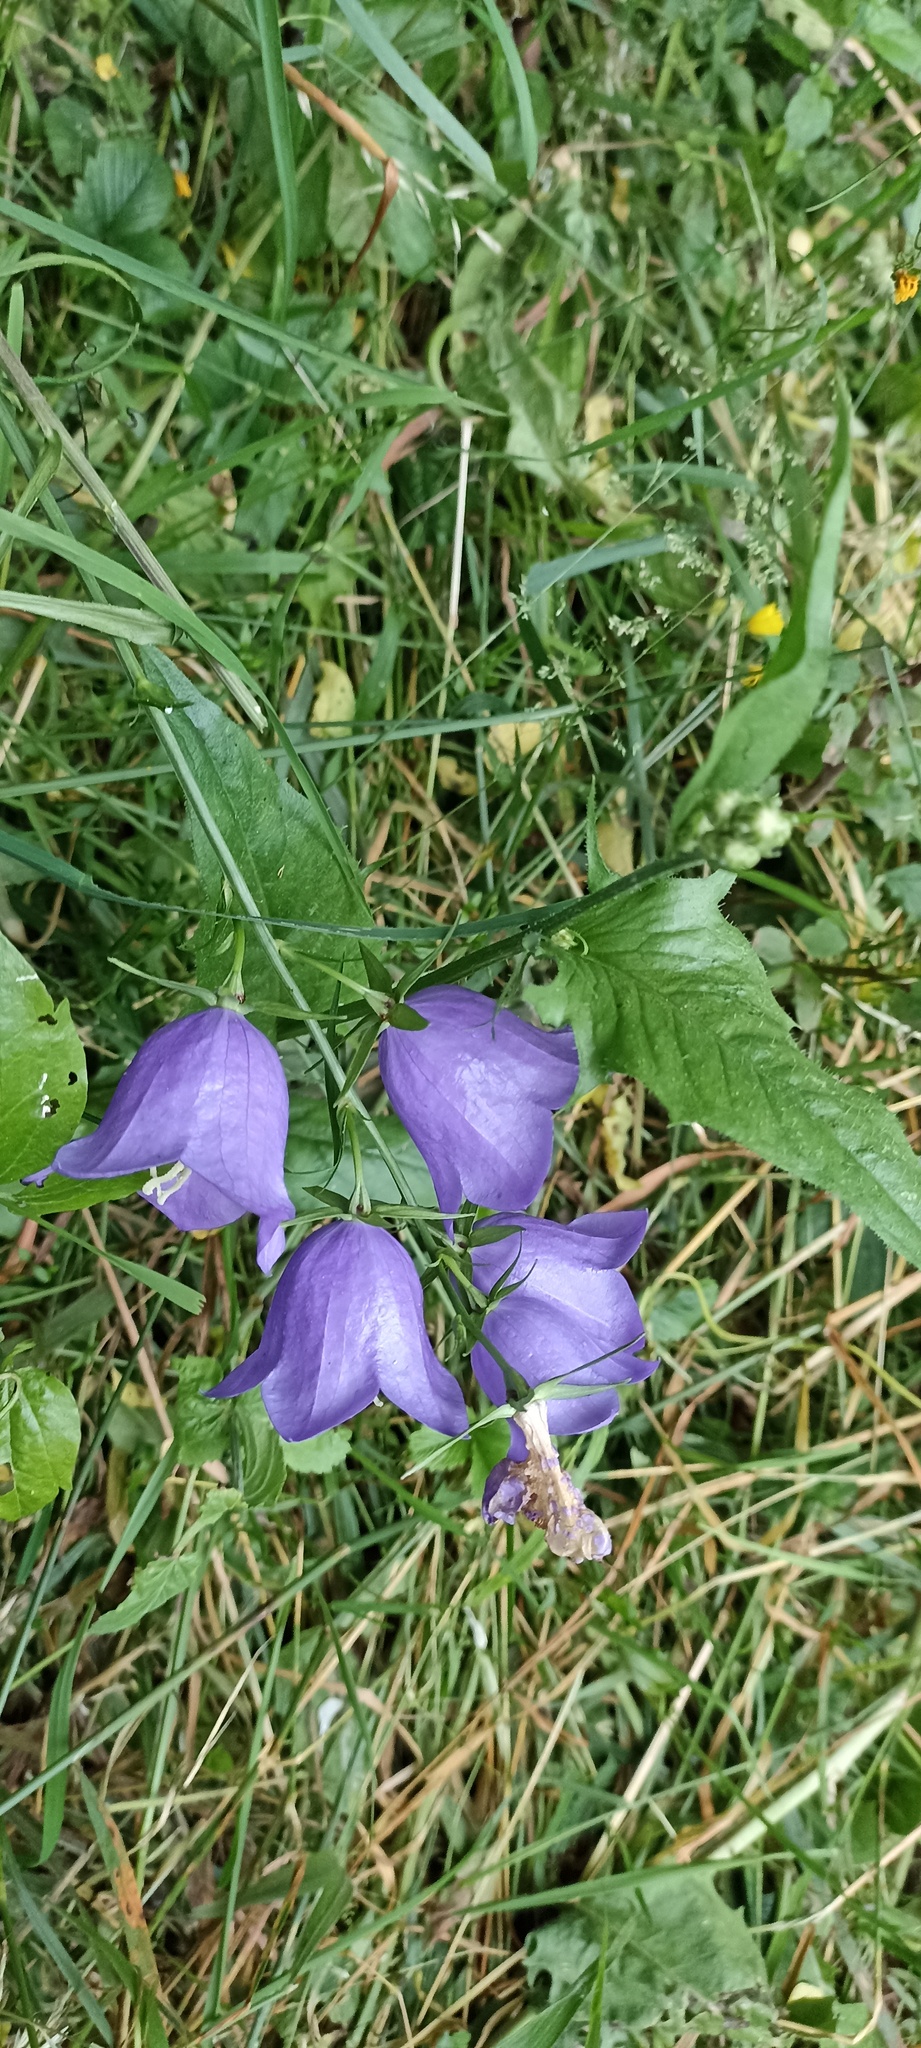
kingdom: Plantae
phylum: Tracheophyta
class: Magnoliopsida
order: Asterales
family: Campanulaceae
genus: Campanula
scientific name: Campanula persicifolia
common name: Peach-leaved bellflower
